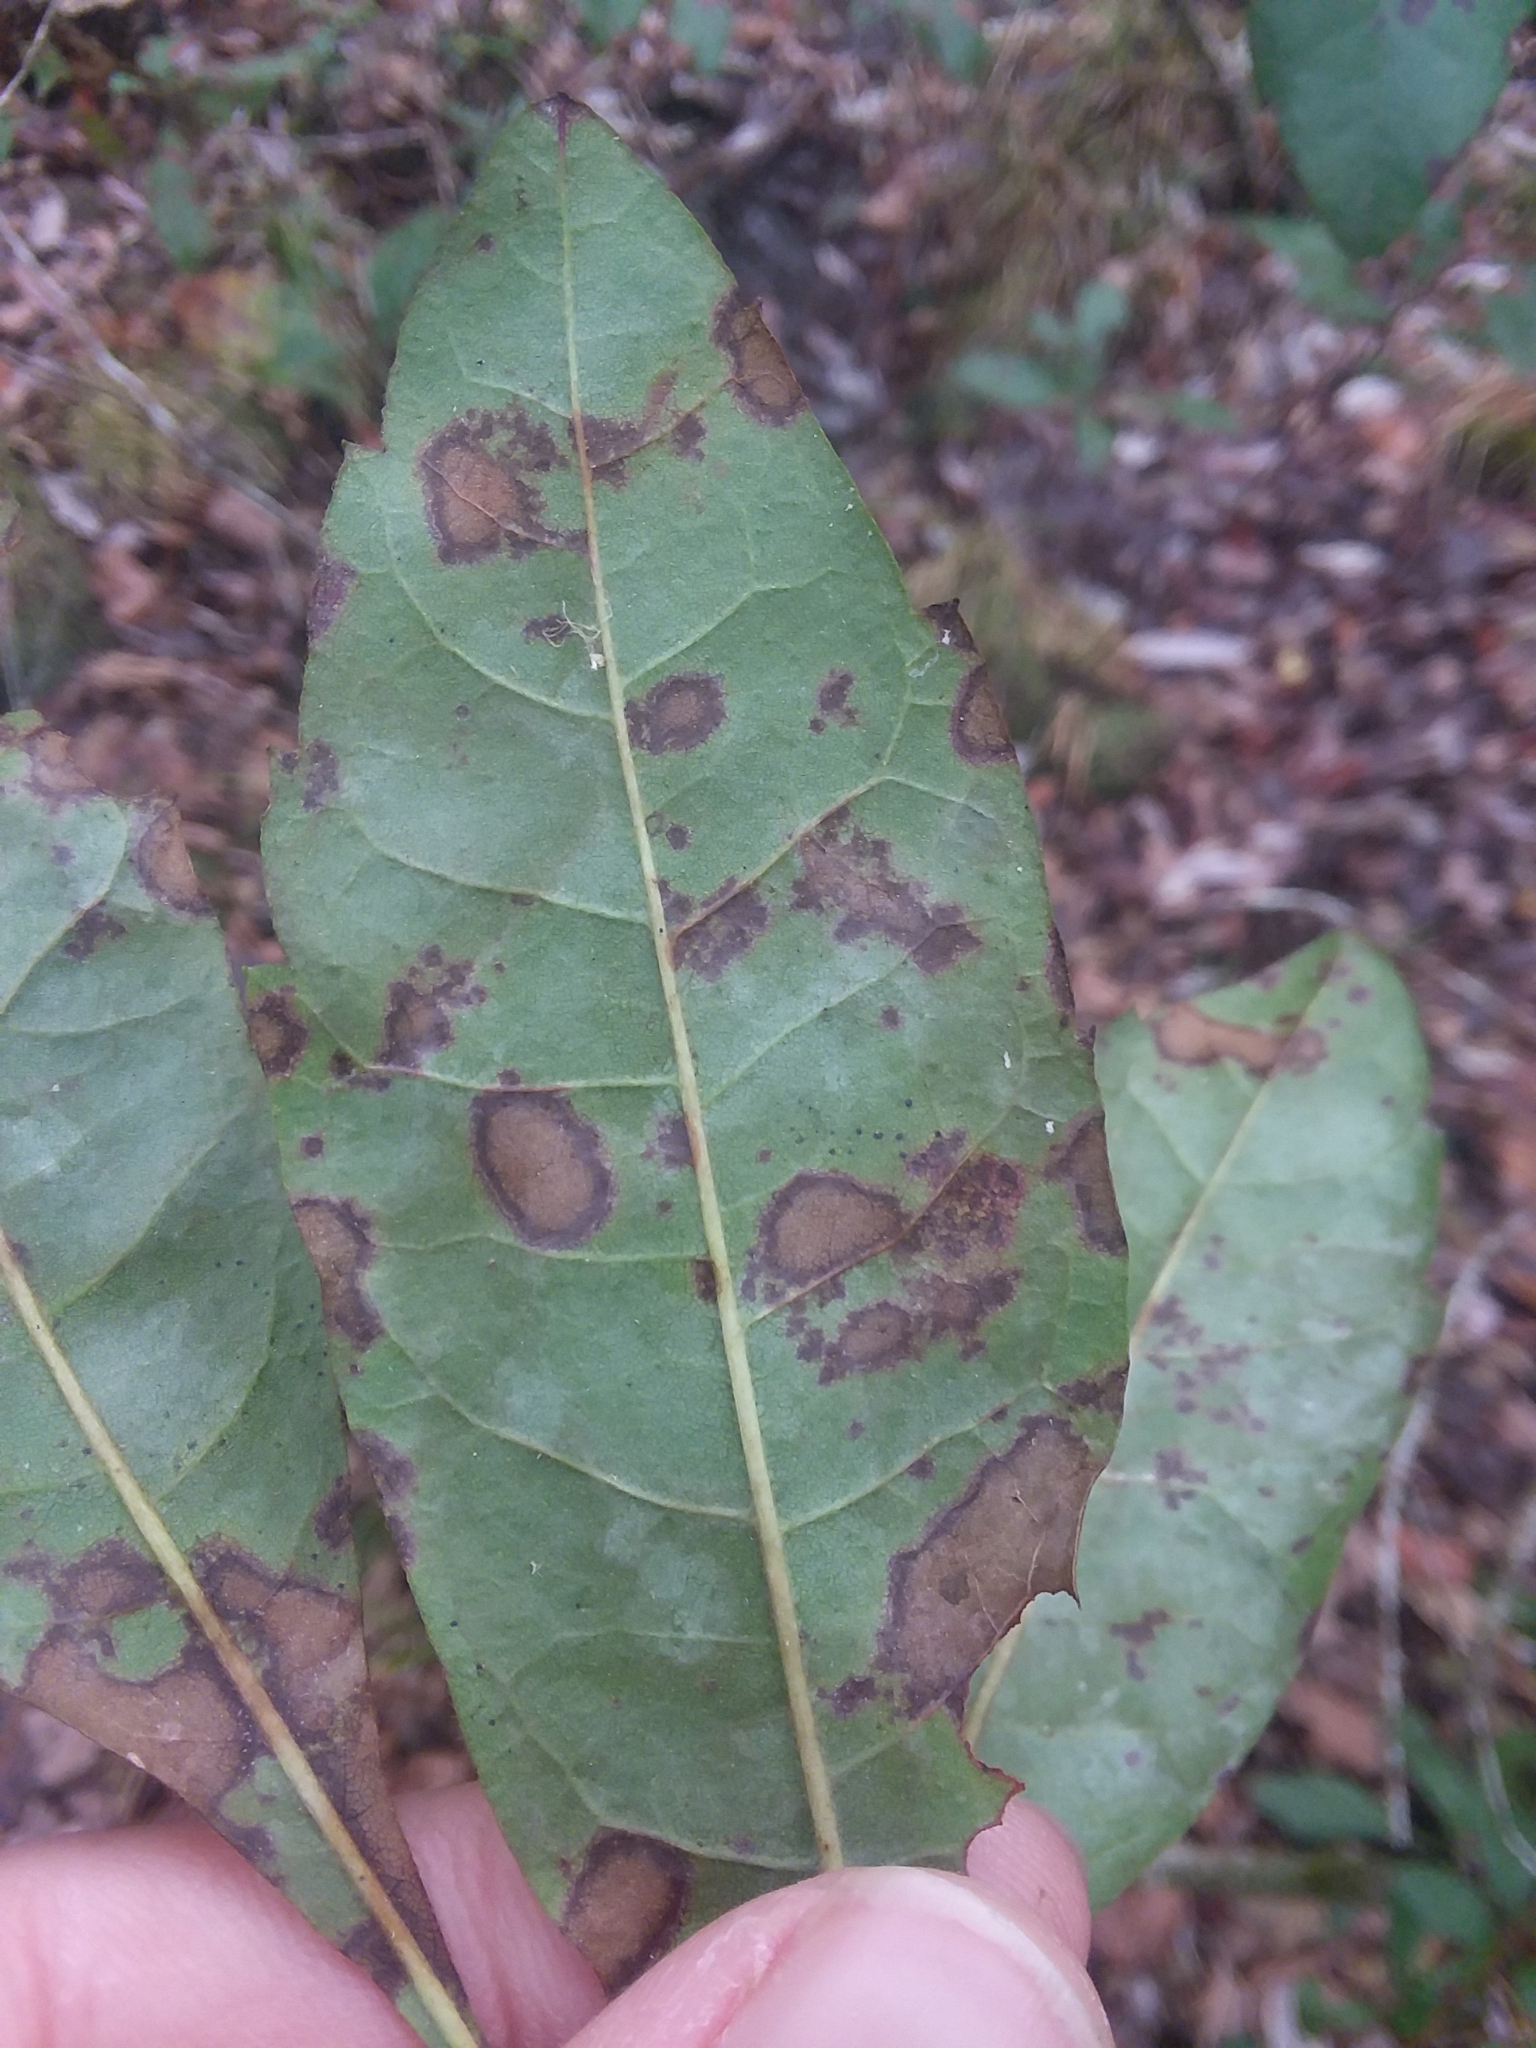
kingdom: Plantae
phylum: Tracheophyta
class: Magnoliopsida
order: Fagales
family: Myricaceae
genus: Morella
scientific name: Morella caroliniensis
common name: Evergreen bayberry
